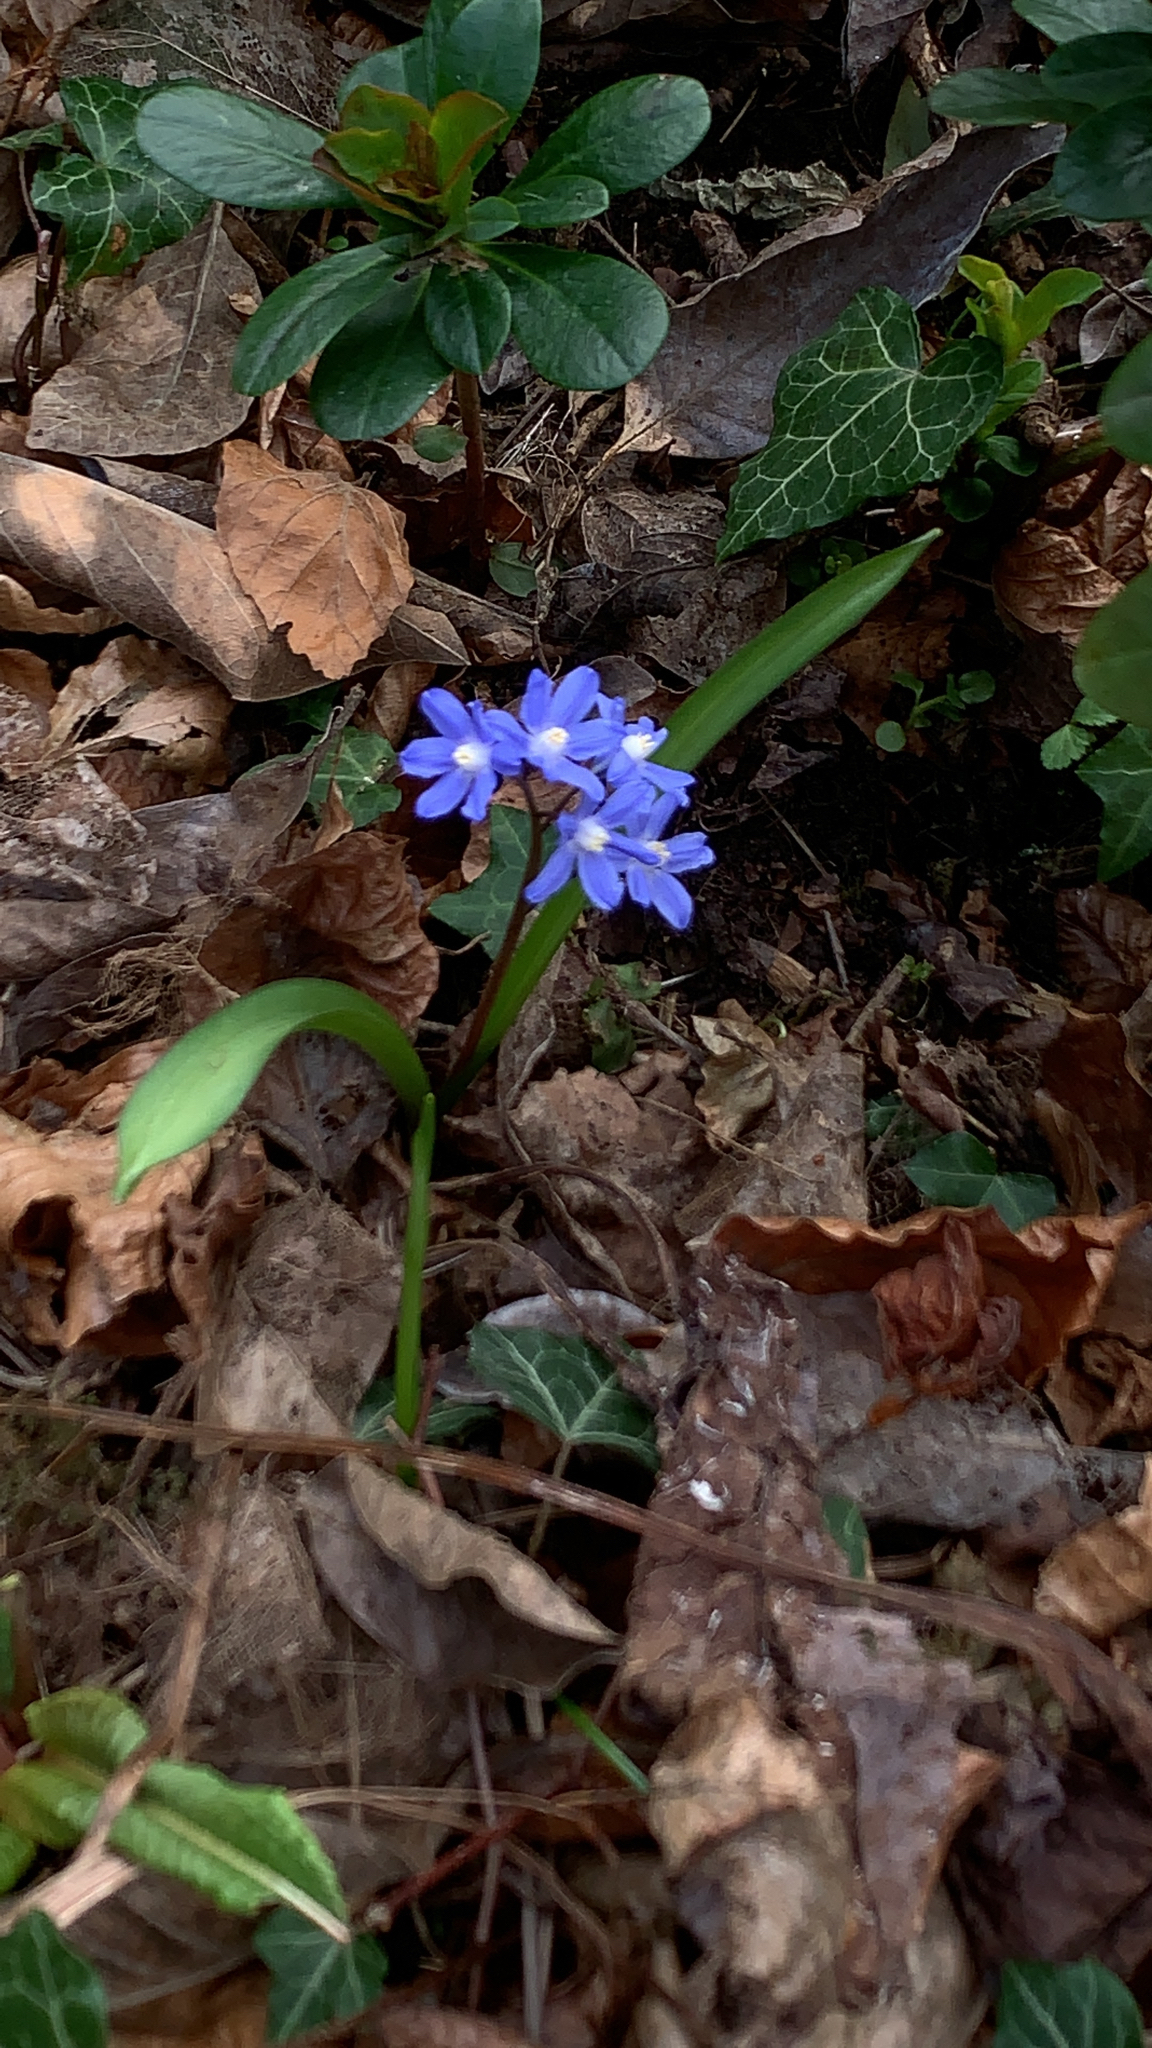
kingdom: Plantae
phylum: Tracheophyta
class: Liliopsida
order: Asparagales
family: Asparagaceae
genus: Scilla
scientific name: Scilla sardensis
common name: Lesser glory-of-the-snow
